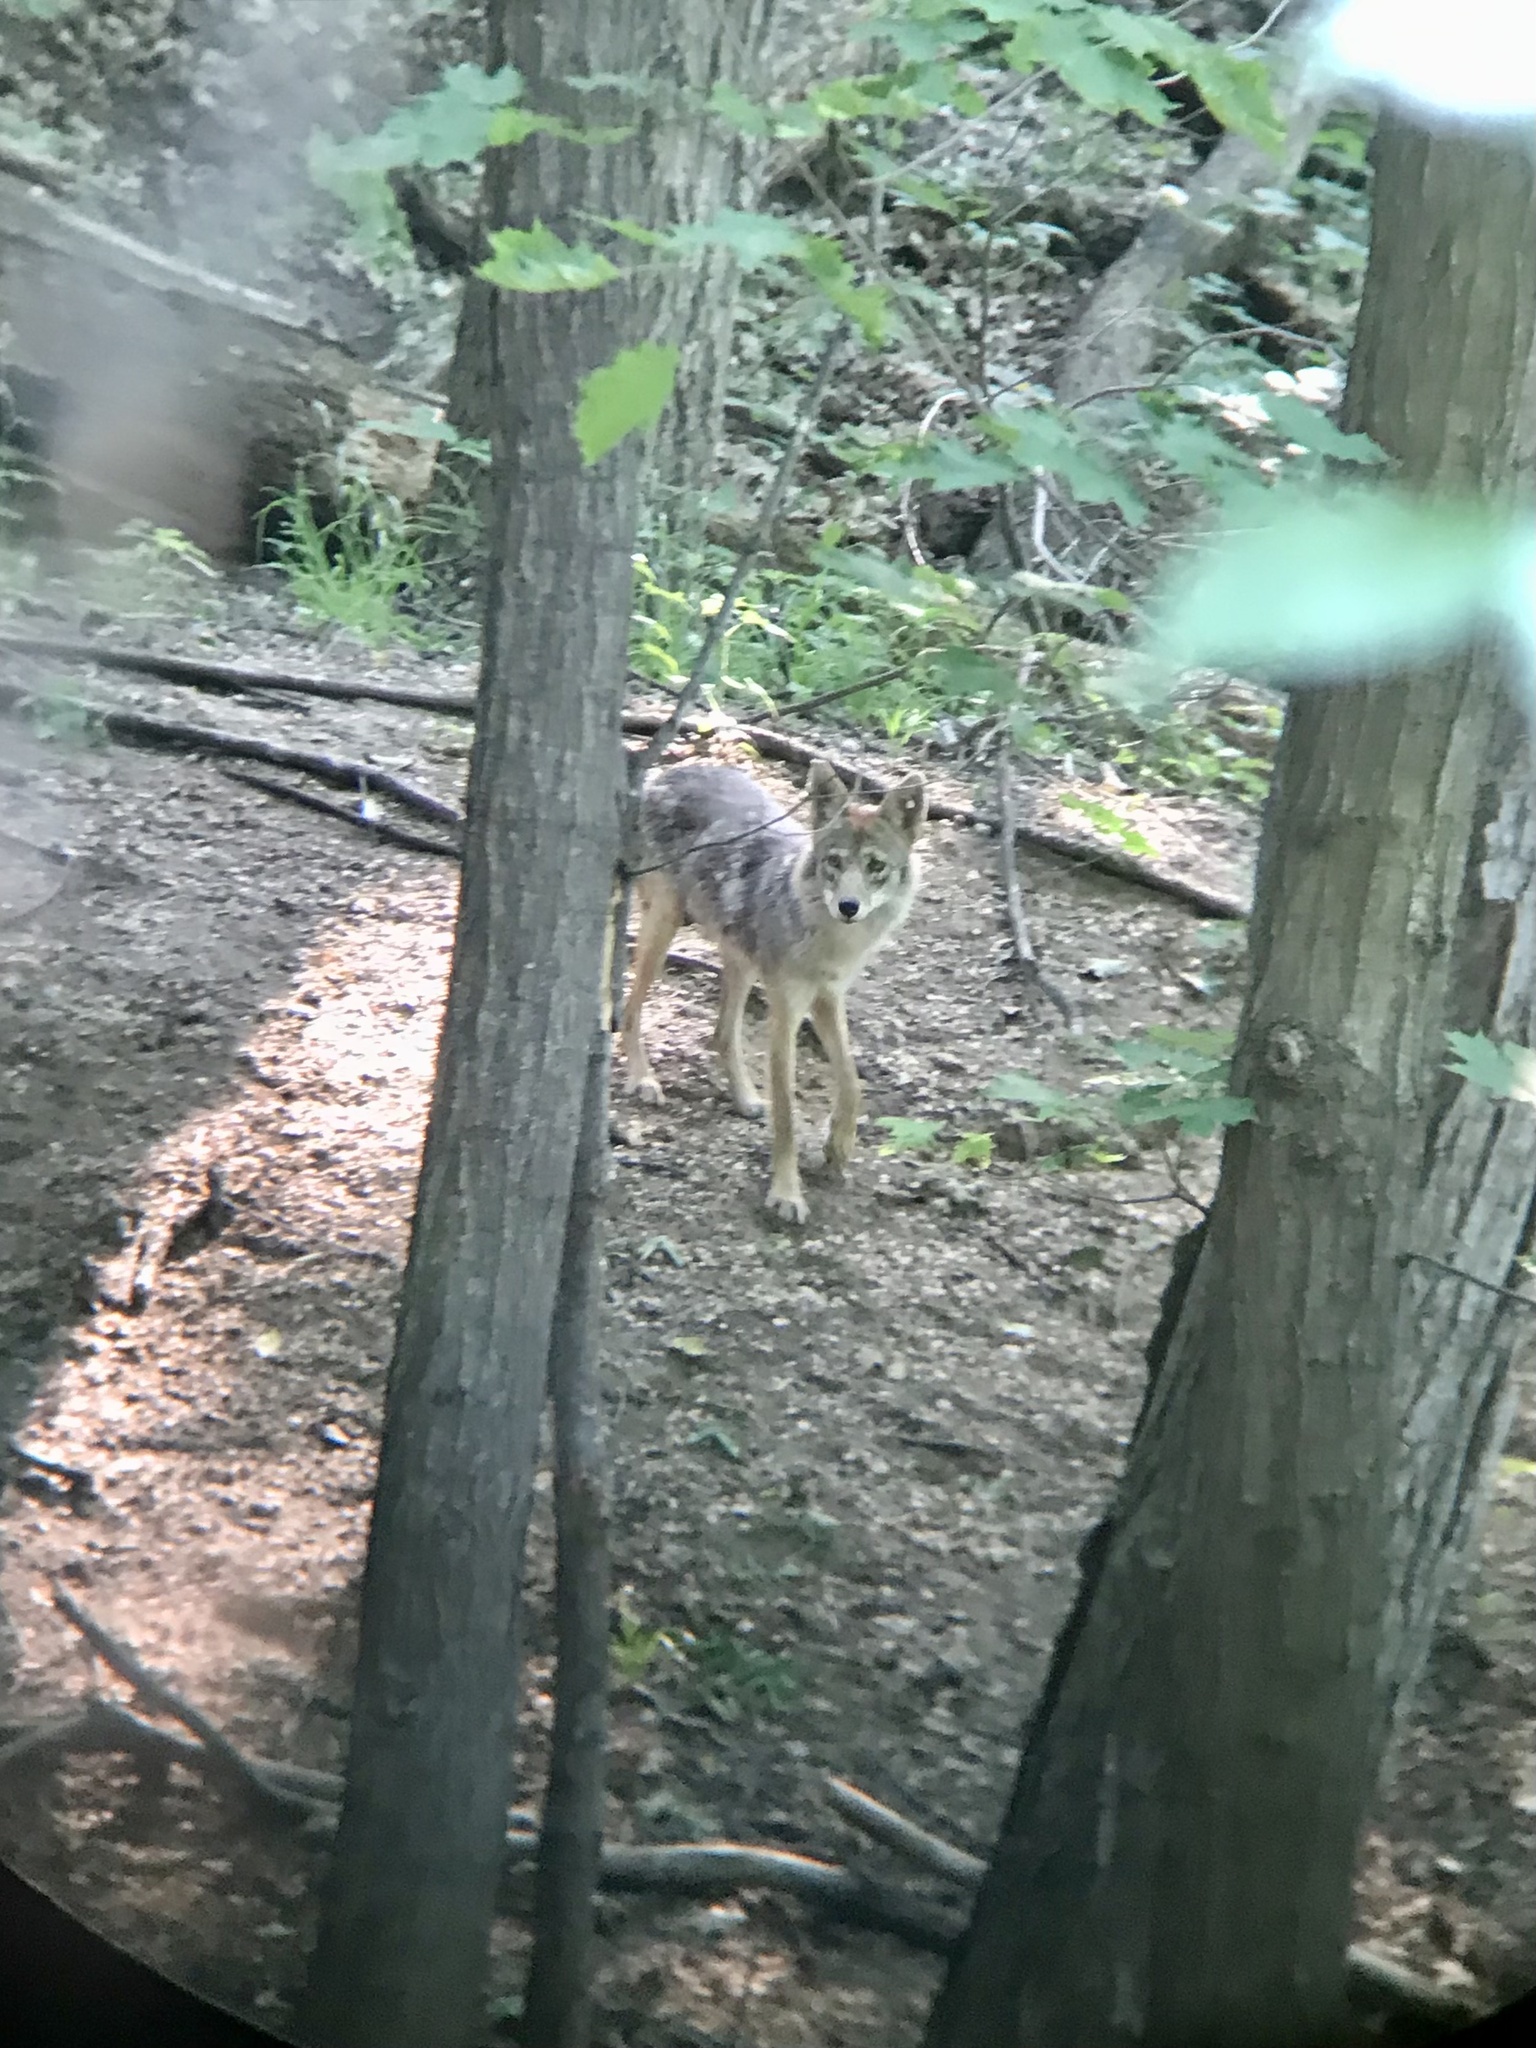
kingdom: Animalia
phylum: Chordata
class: Mammalia
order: Carnivora
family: Canidae
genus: Canis
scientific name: Canis latrans
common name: Coyote
